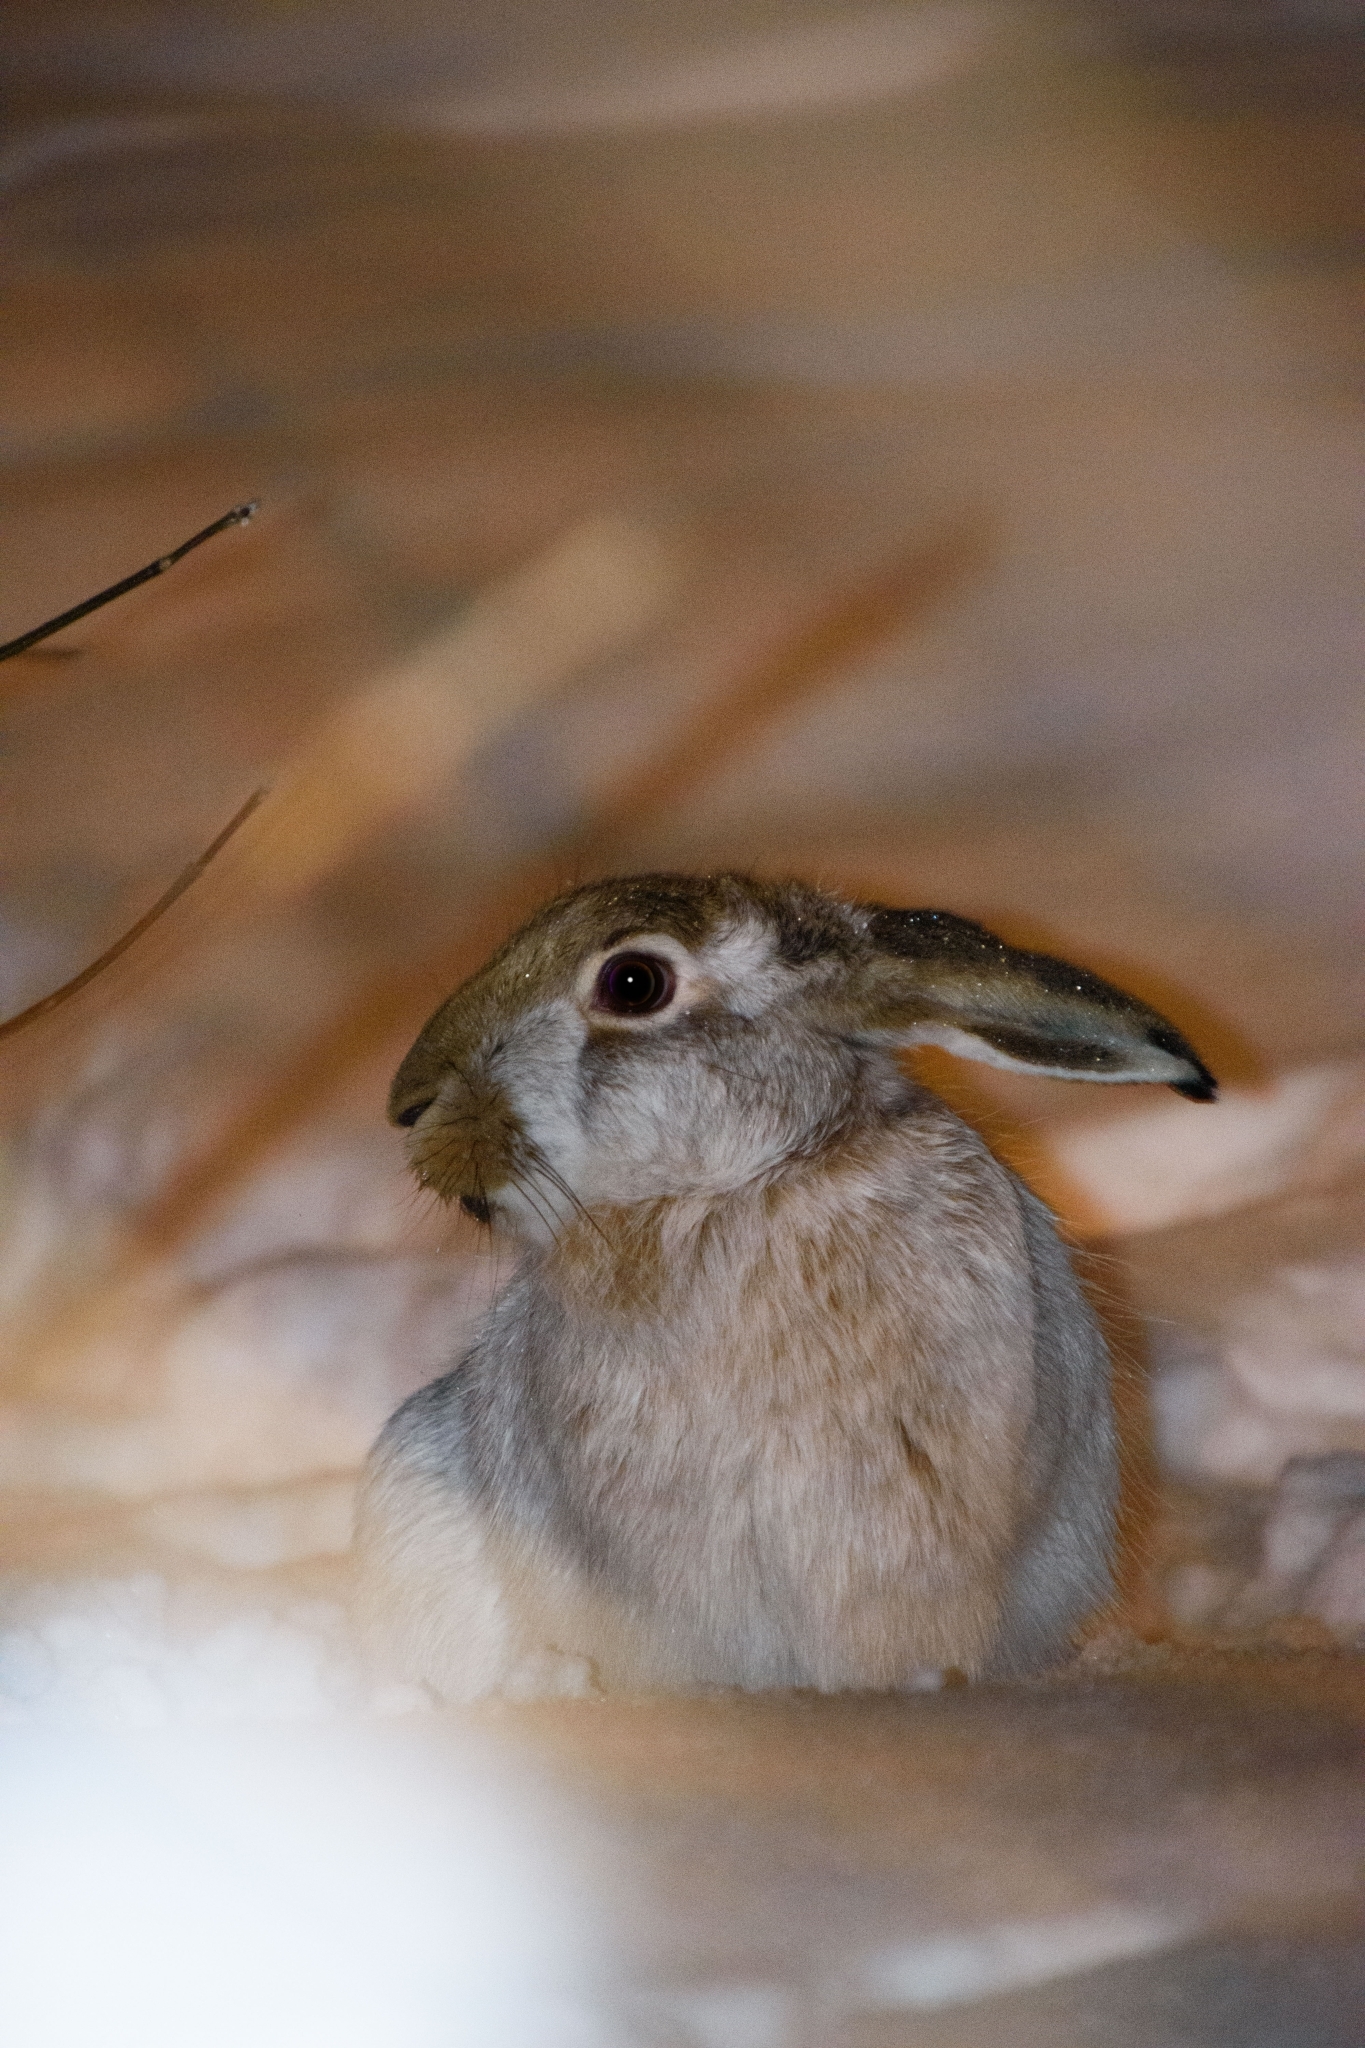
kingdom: Animalia
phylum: Chordata
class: Mammalia
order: Lagomorpha
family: Leporidae
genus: Lepus
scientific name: Lepus europaeus
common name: European hare
